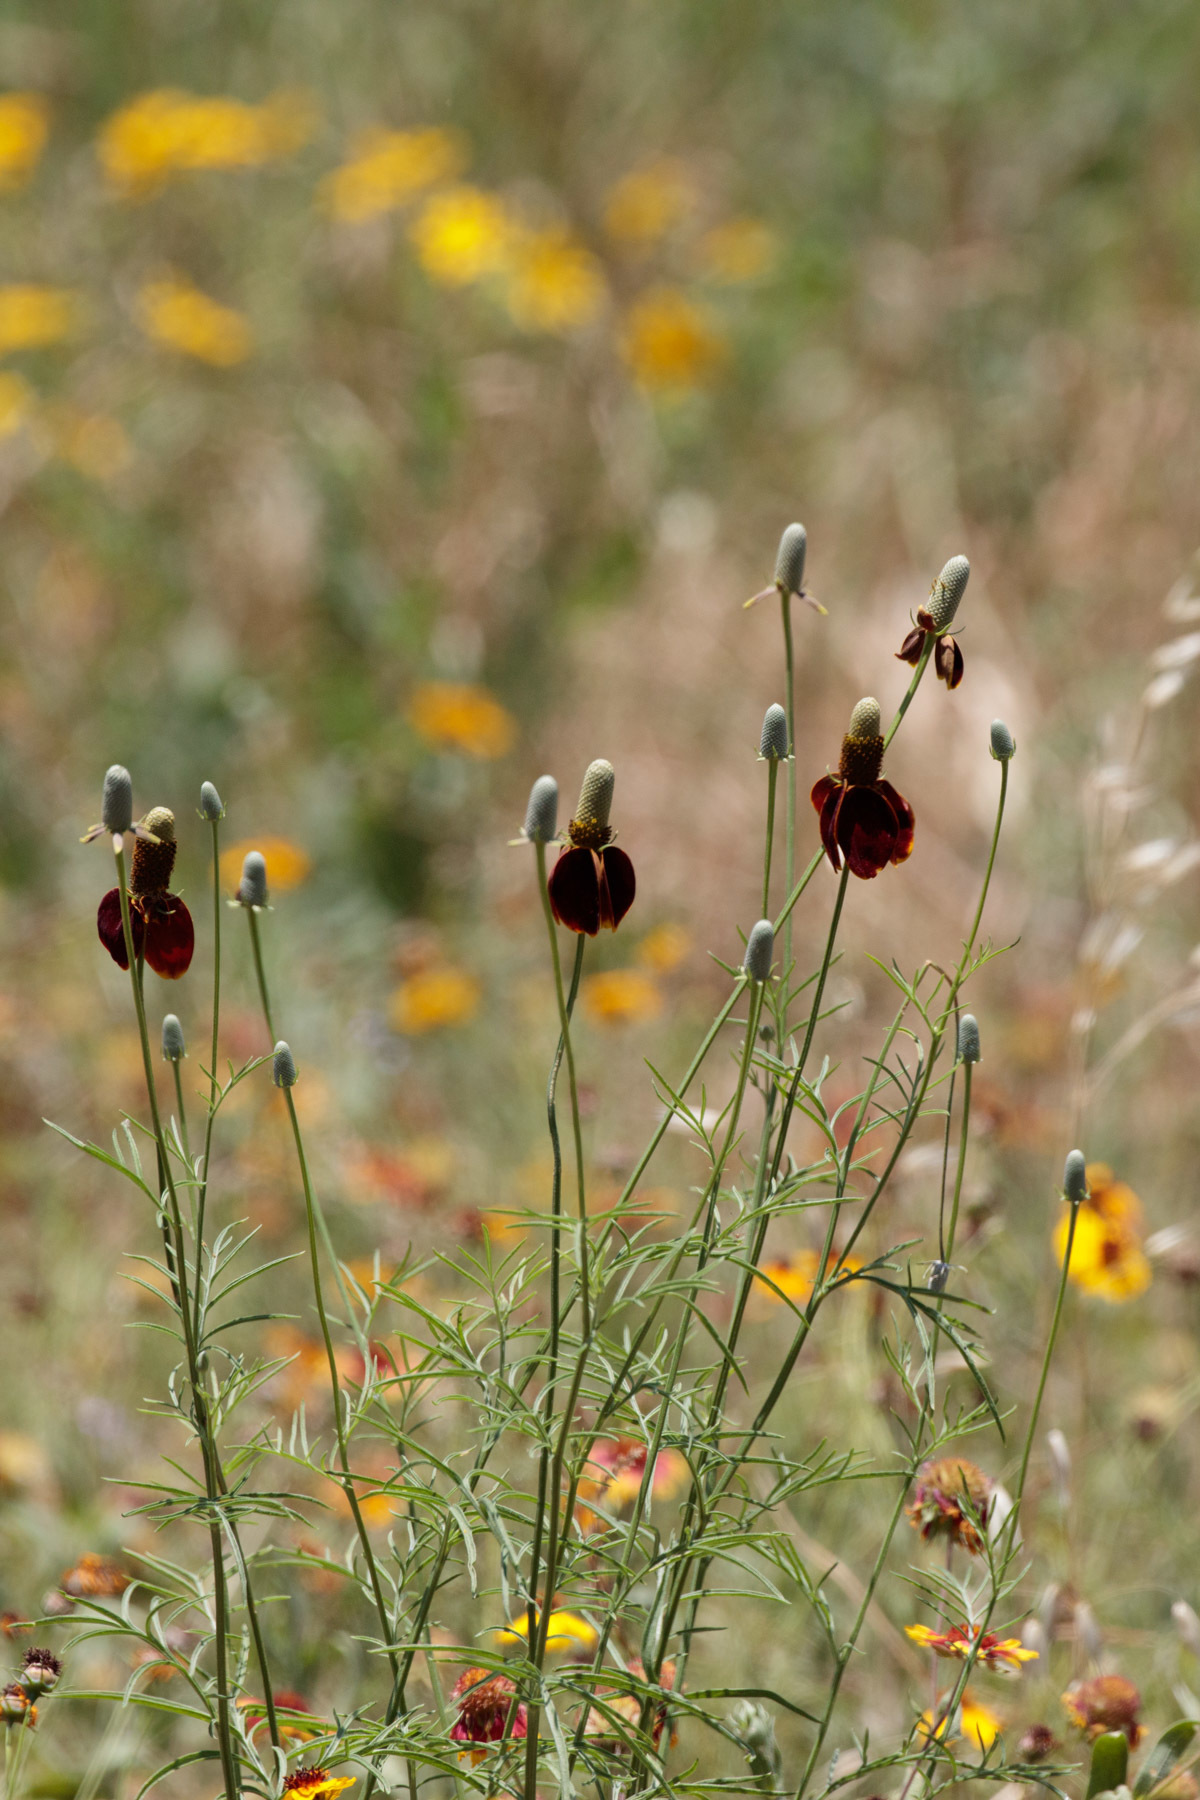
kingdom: Plantae
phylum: Tracheophyta
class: Magnoliopsida
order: Asterales
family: Asteraceae
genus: Ratibida
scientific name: Ratibida columnifera
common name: Prairie coneflower
